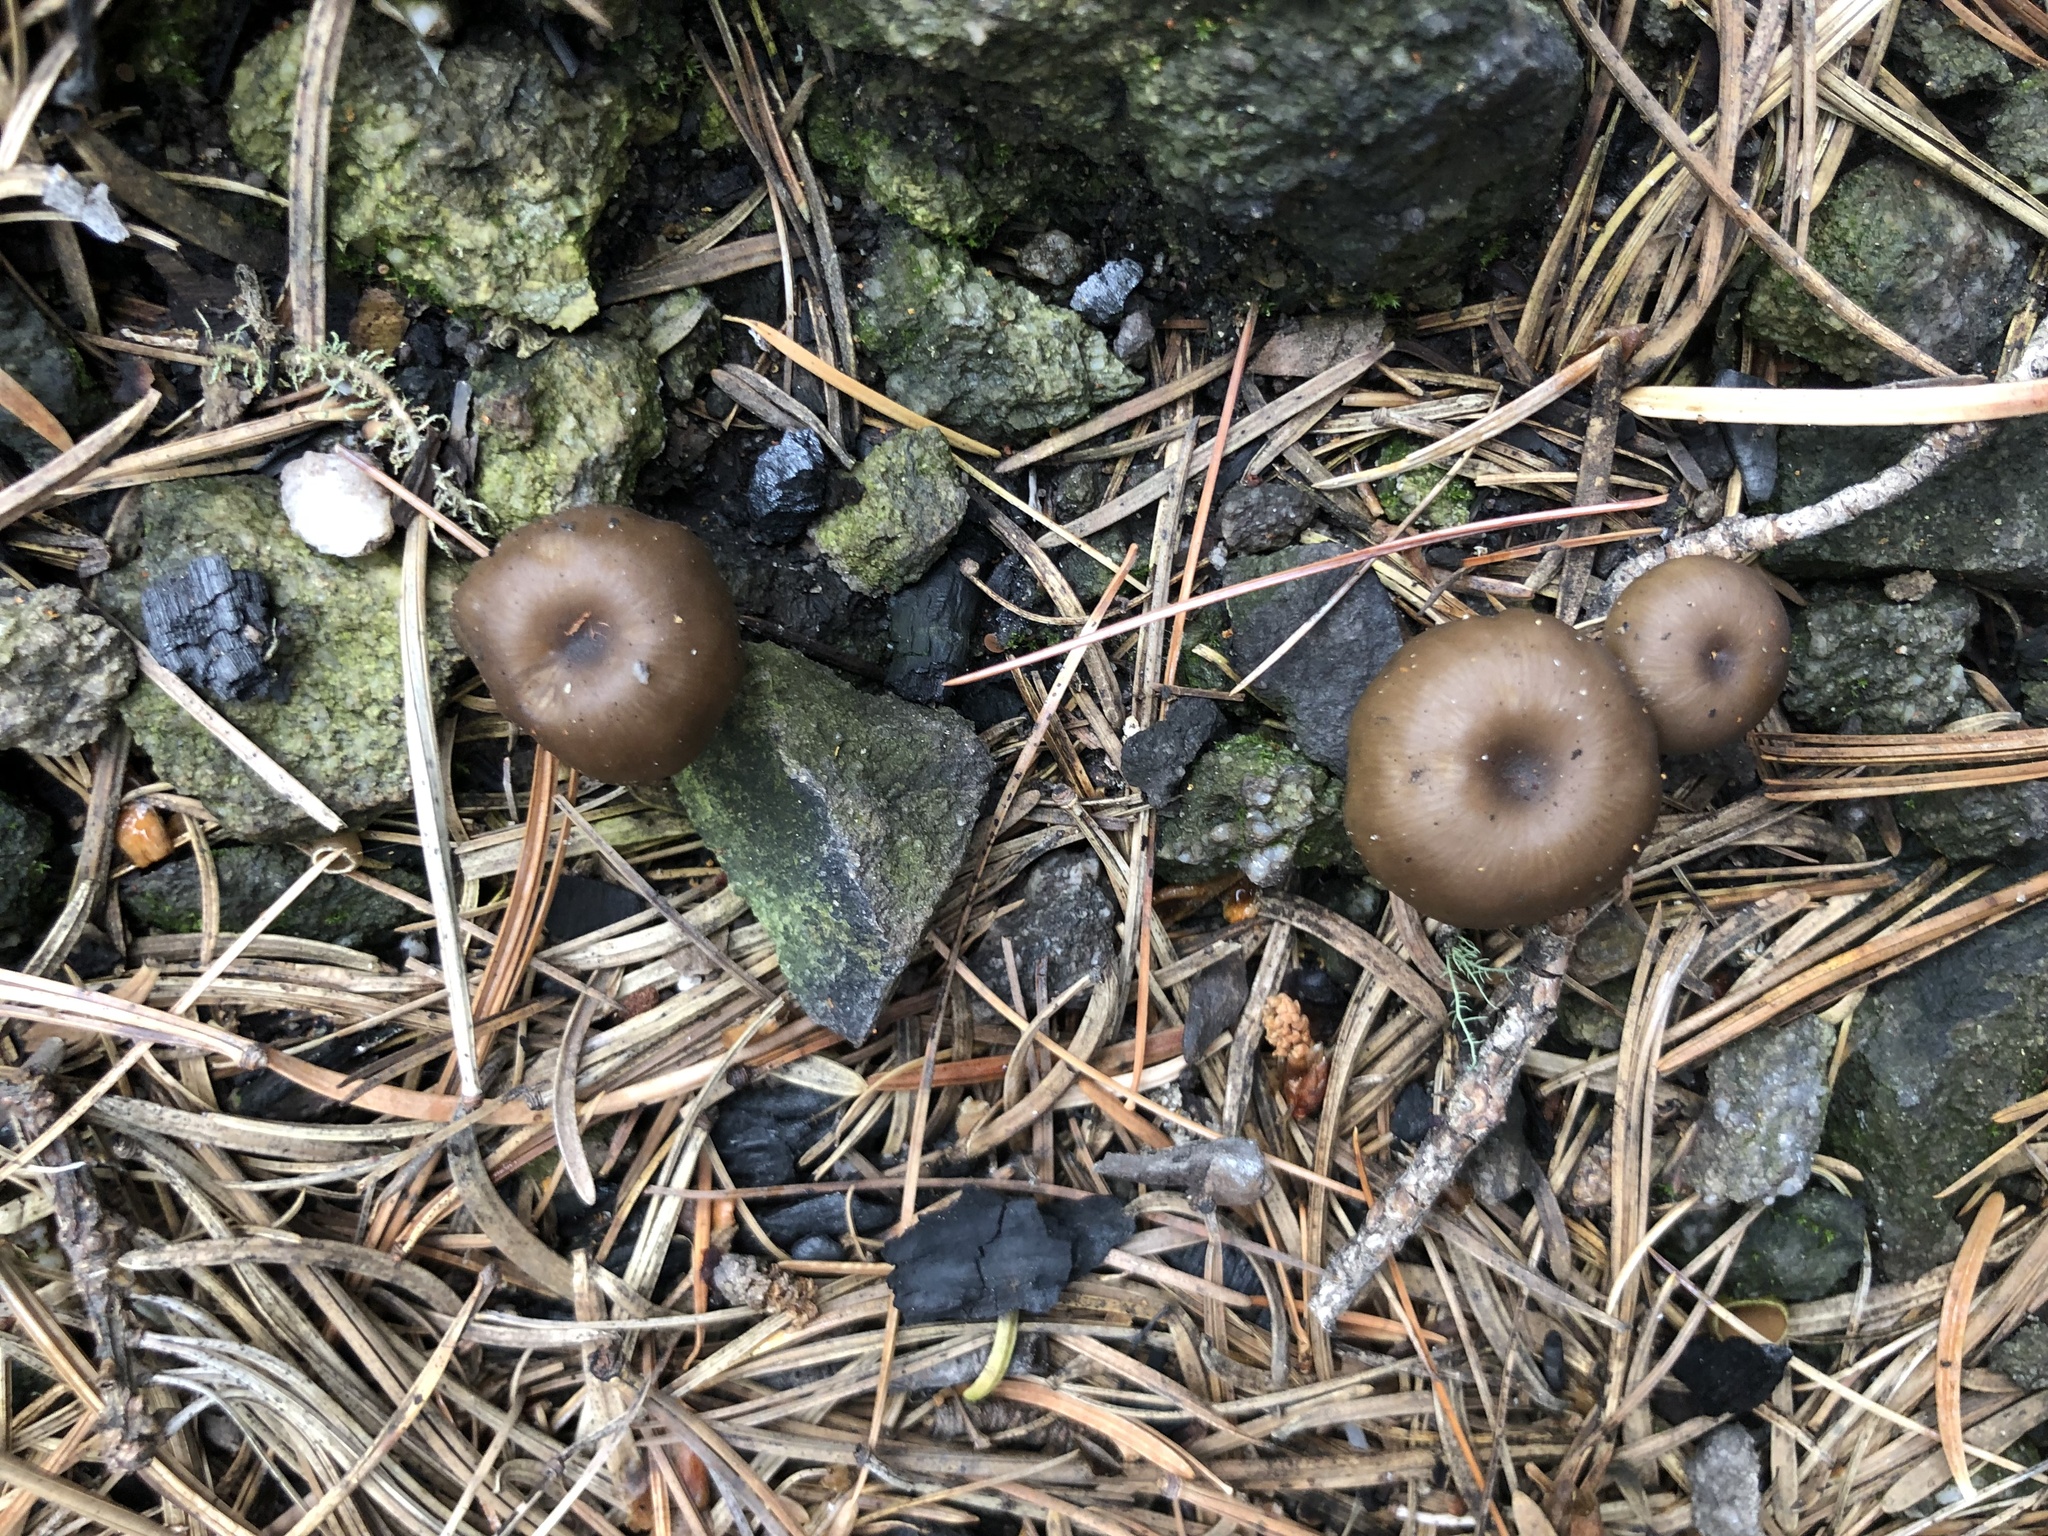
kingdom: Fungi
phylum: Basidiomycota
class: Agaricomycetes
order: Agaricales
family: Tricholomataceae
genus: Myxomphalia
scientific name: Myxomphalia maura
